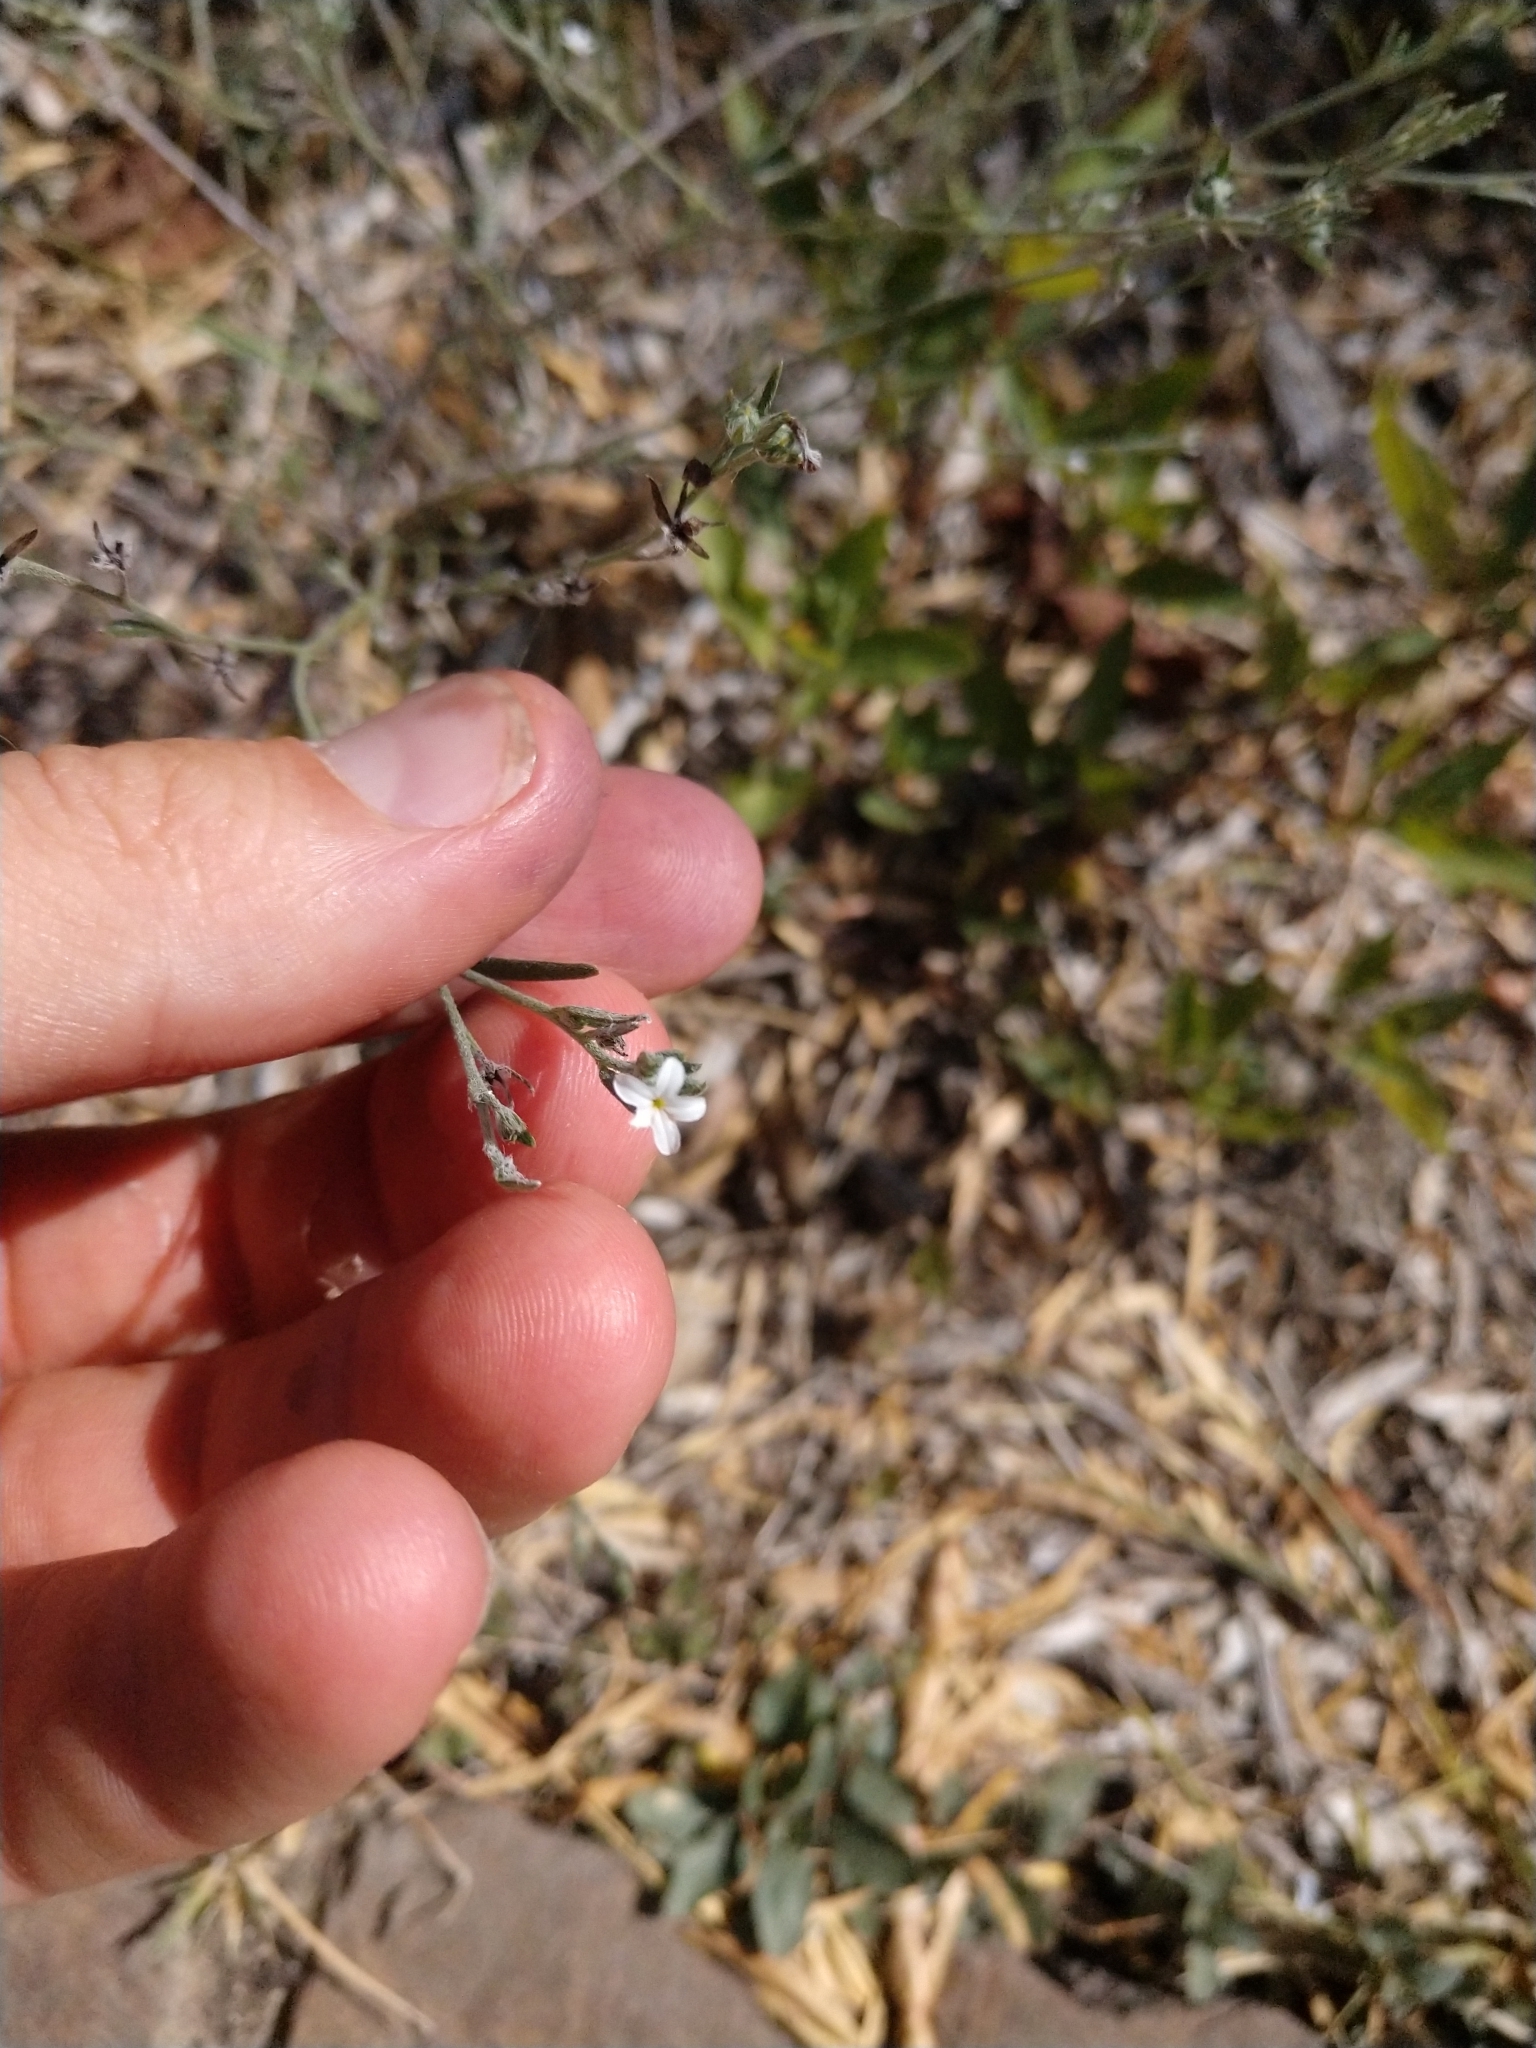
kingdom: Plantae
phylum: Tracheophyta
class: Magnoliopsida
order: Boraginales
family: Heliotropiaceae
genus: Euploca
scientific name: Euploca tenella
